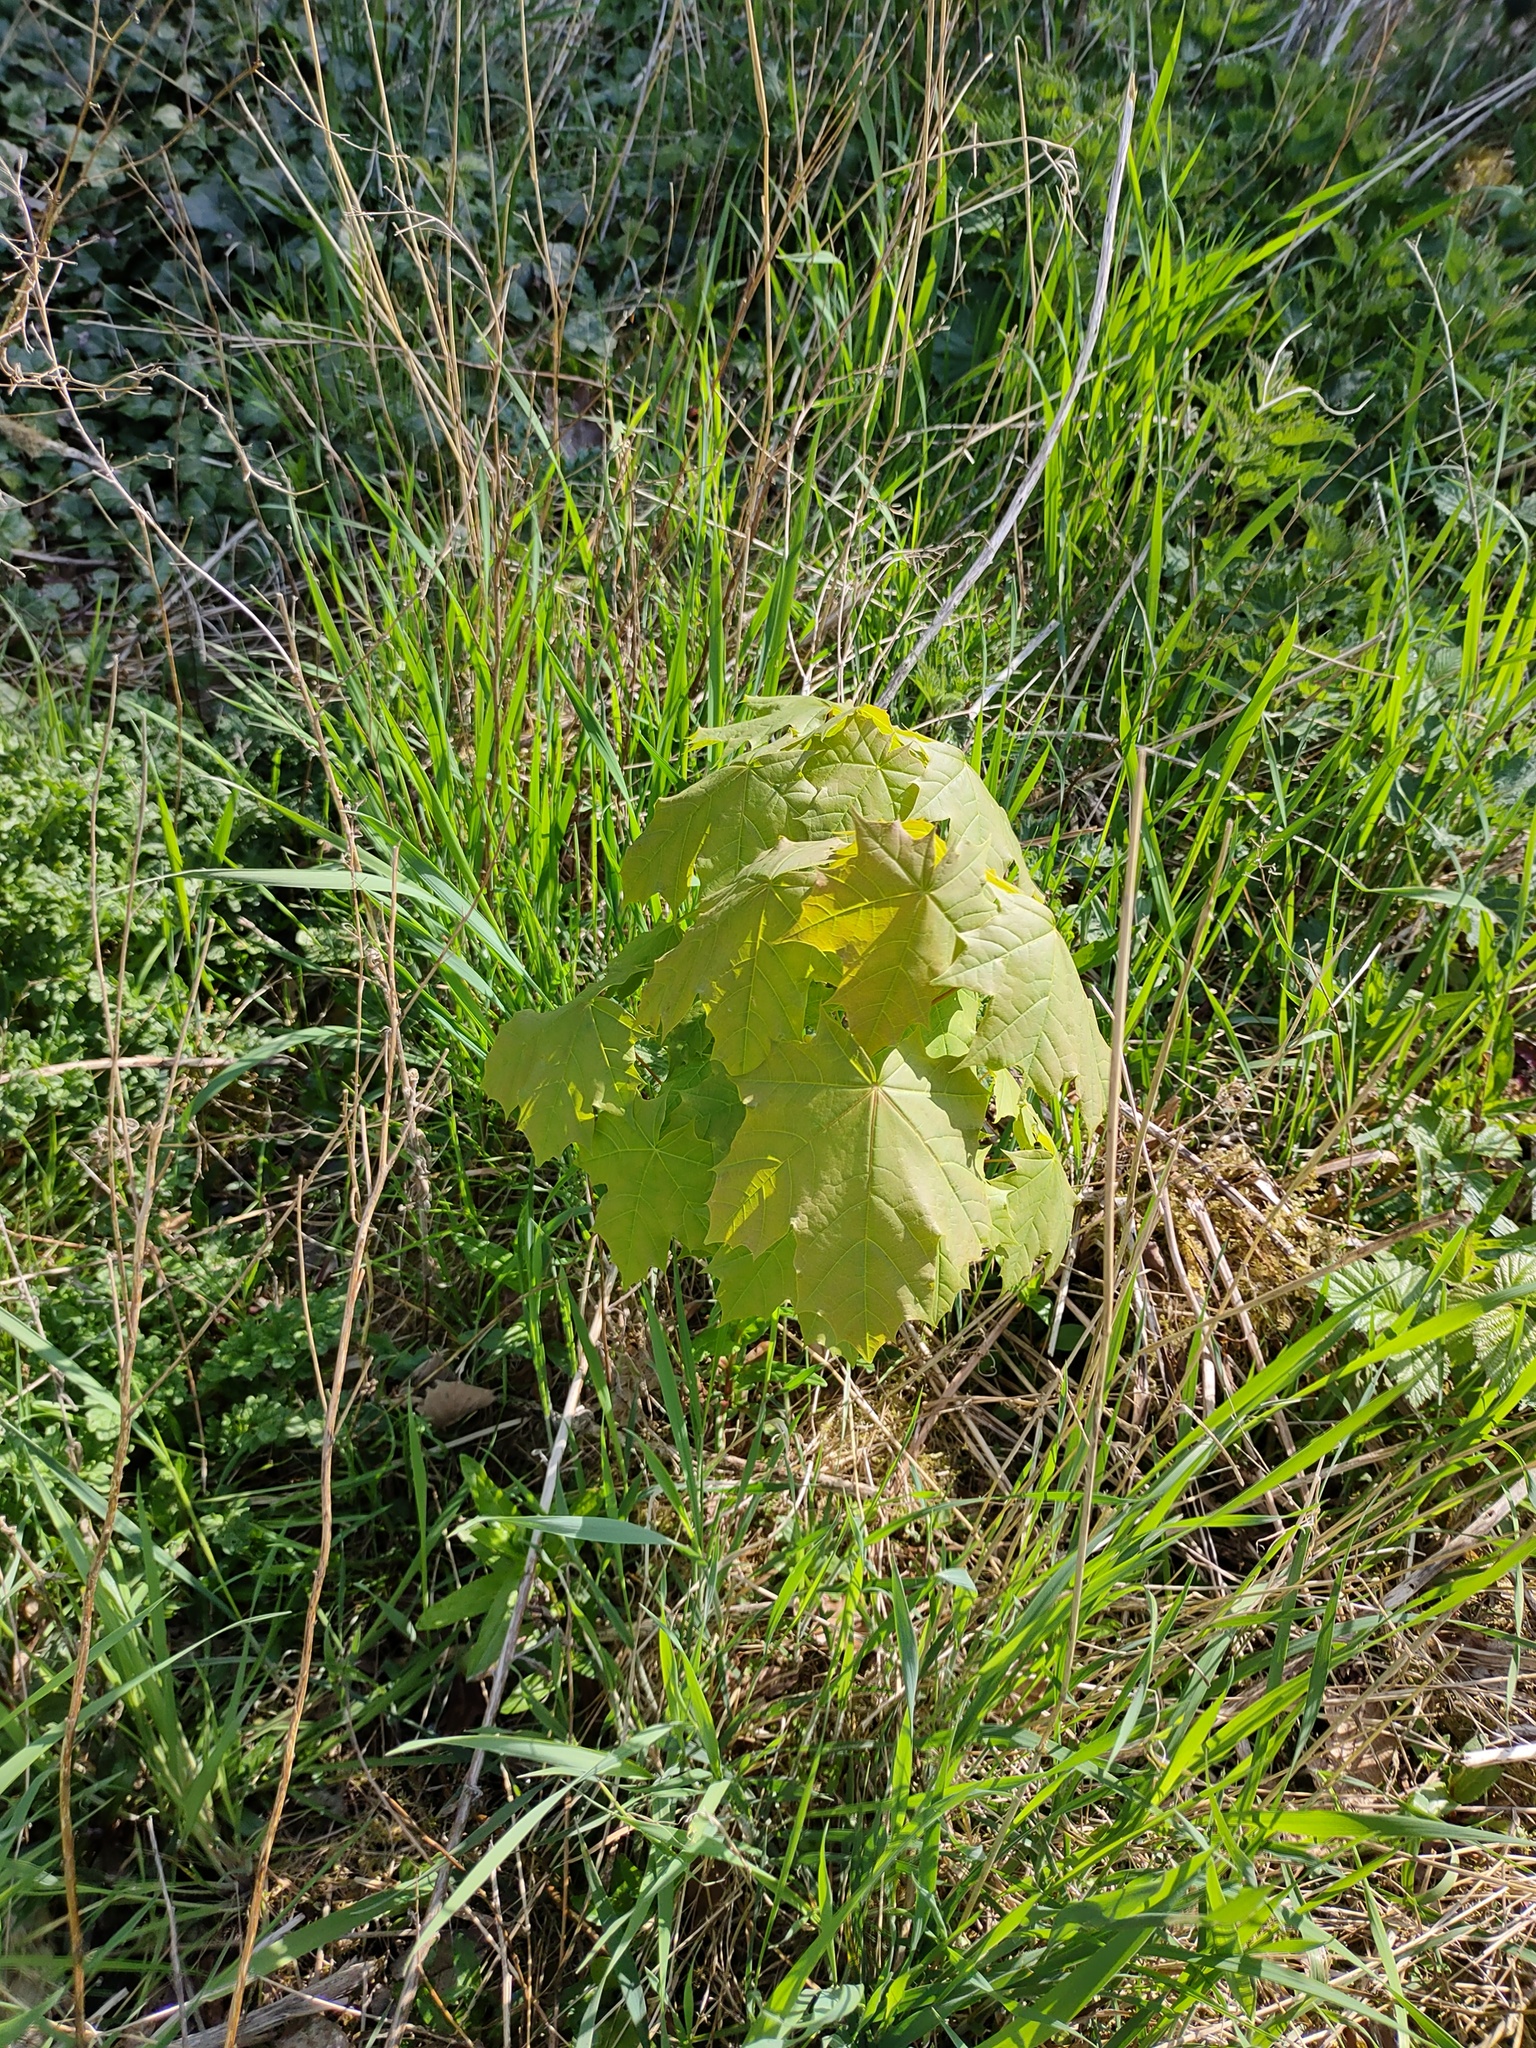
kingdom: Plantae
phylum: Tracheophyta
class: Magnoliopsida
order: Sapindales
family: Sapindaceae
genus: Acer
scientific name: Acer pseudoplatanus
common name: Sycamore
